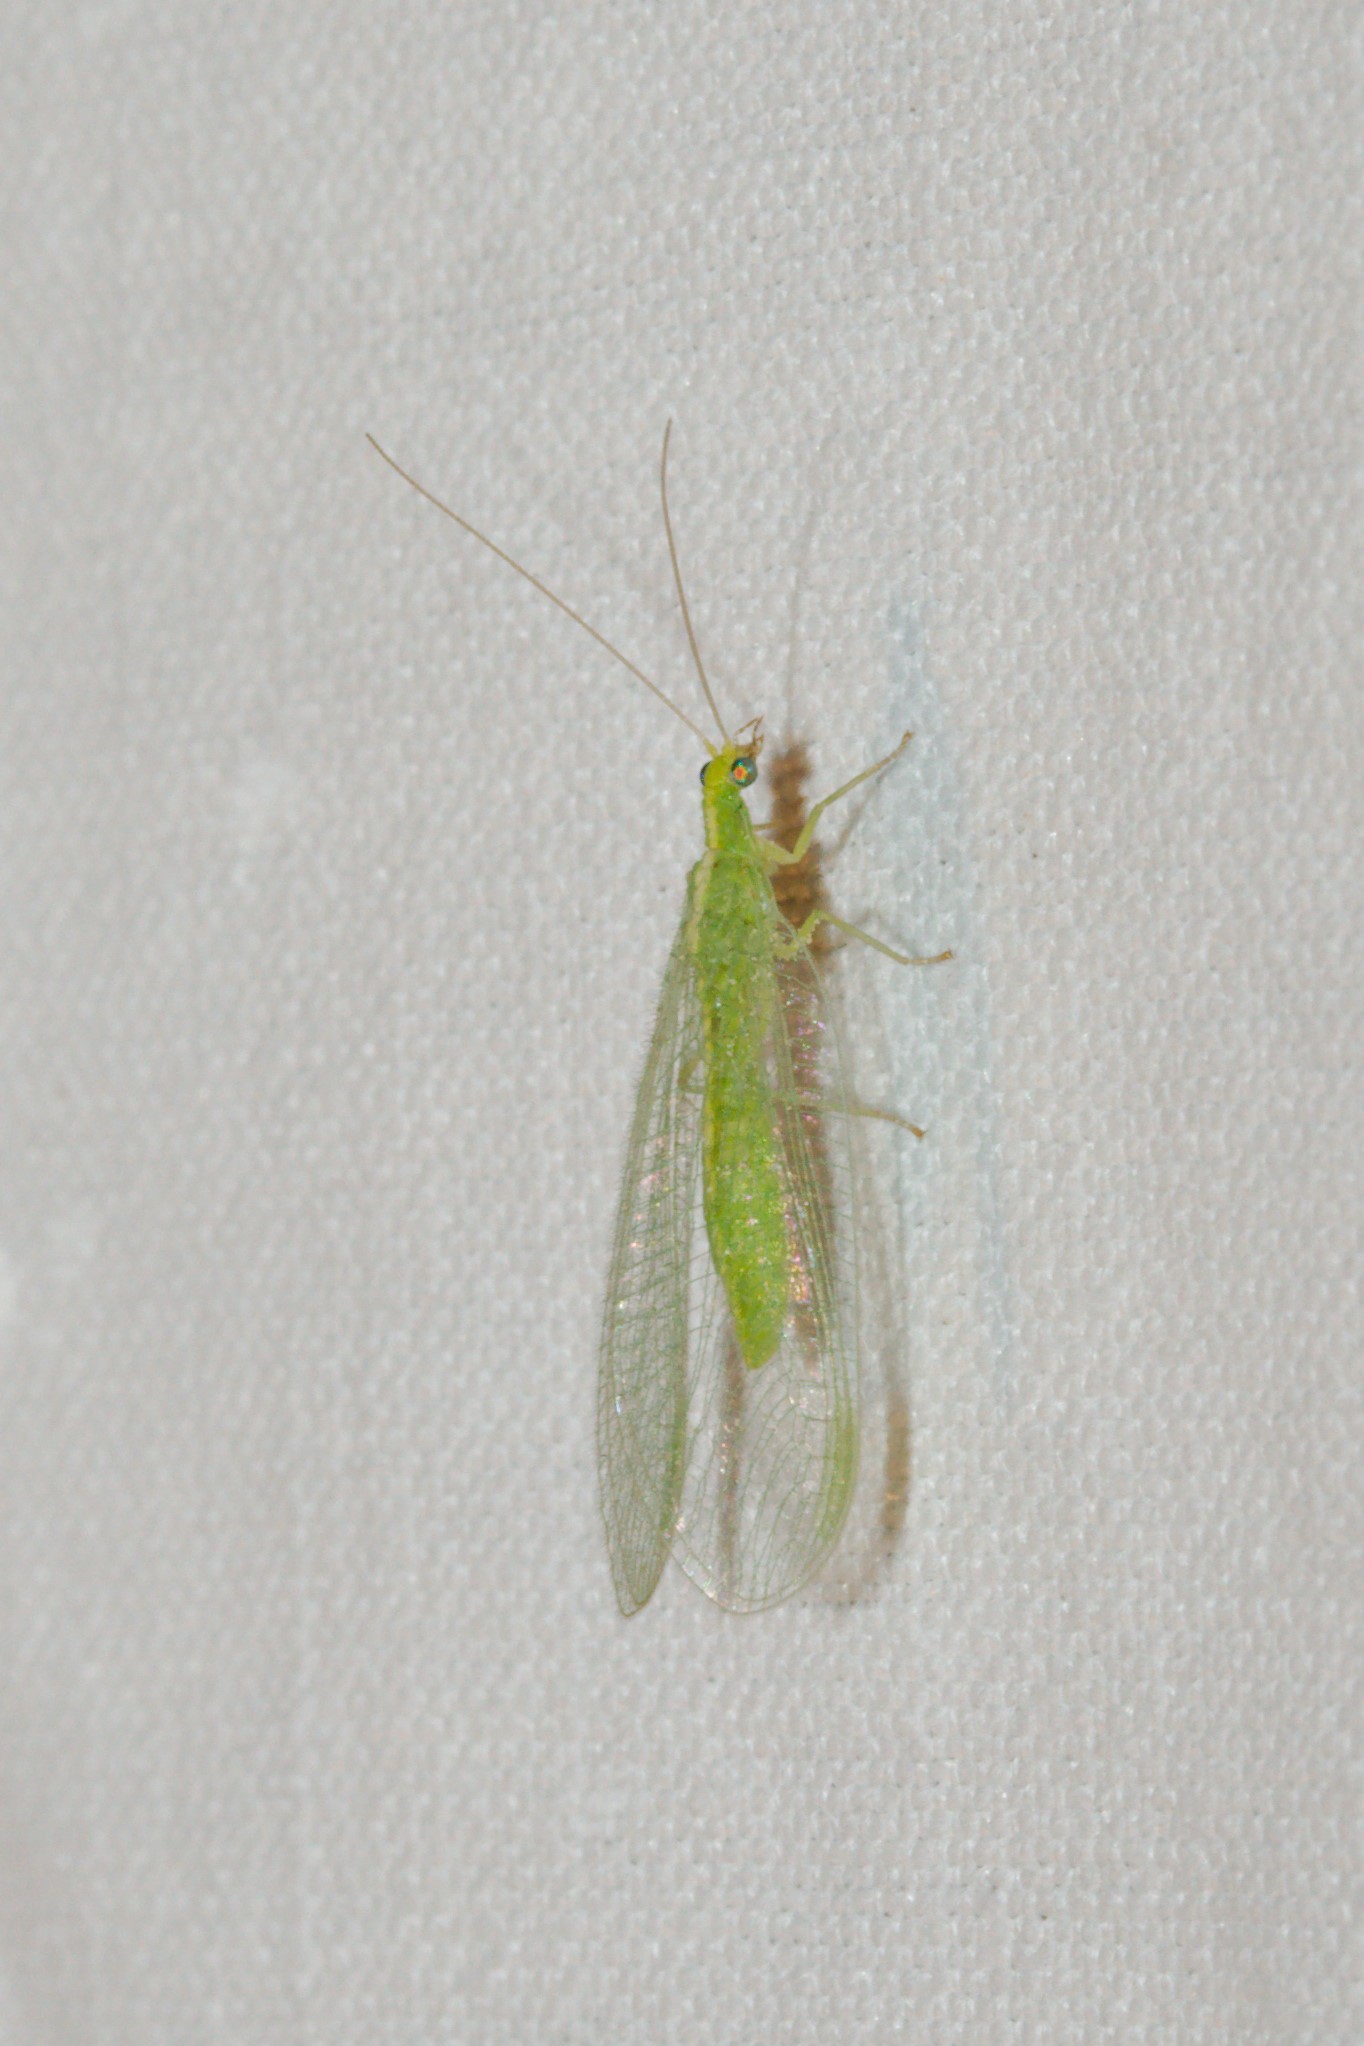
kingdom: Animalia
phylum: Arthropoda
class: Insecta
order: Neuroptera
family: Chrysopidae
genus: Chrysoperla
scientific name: Chrysoperla
